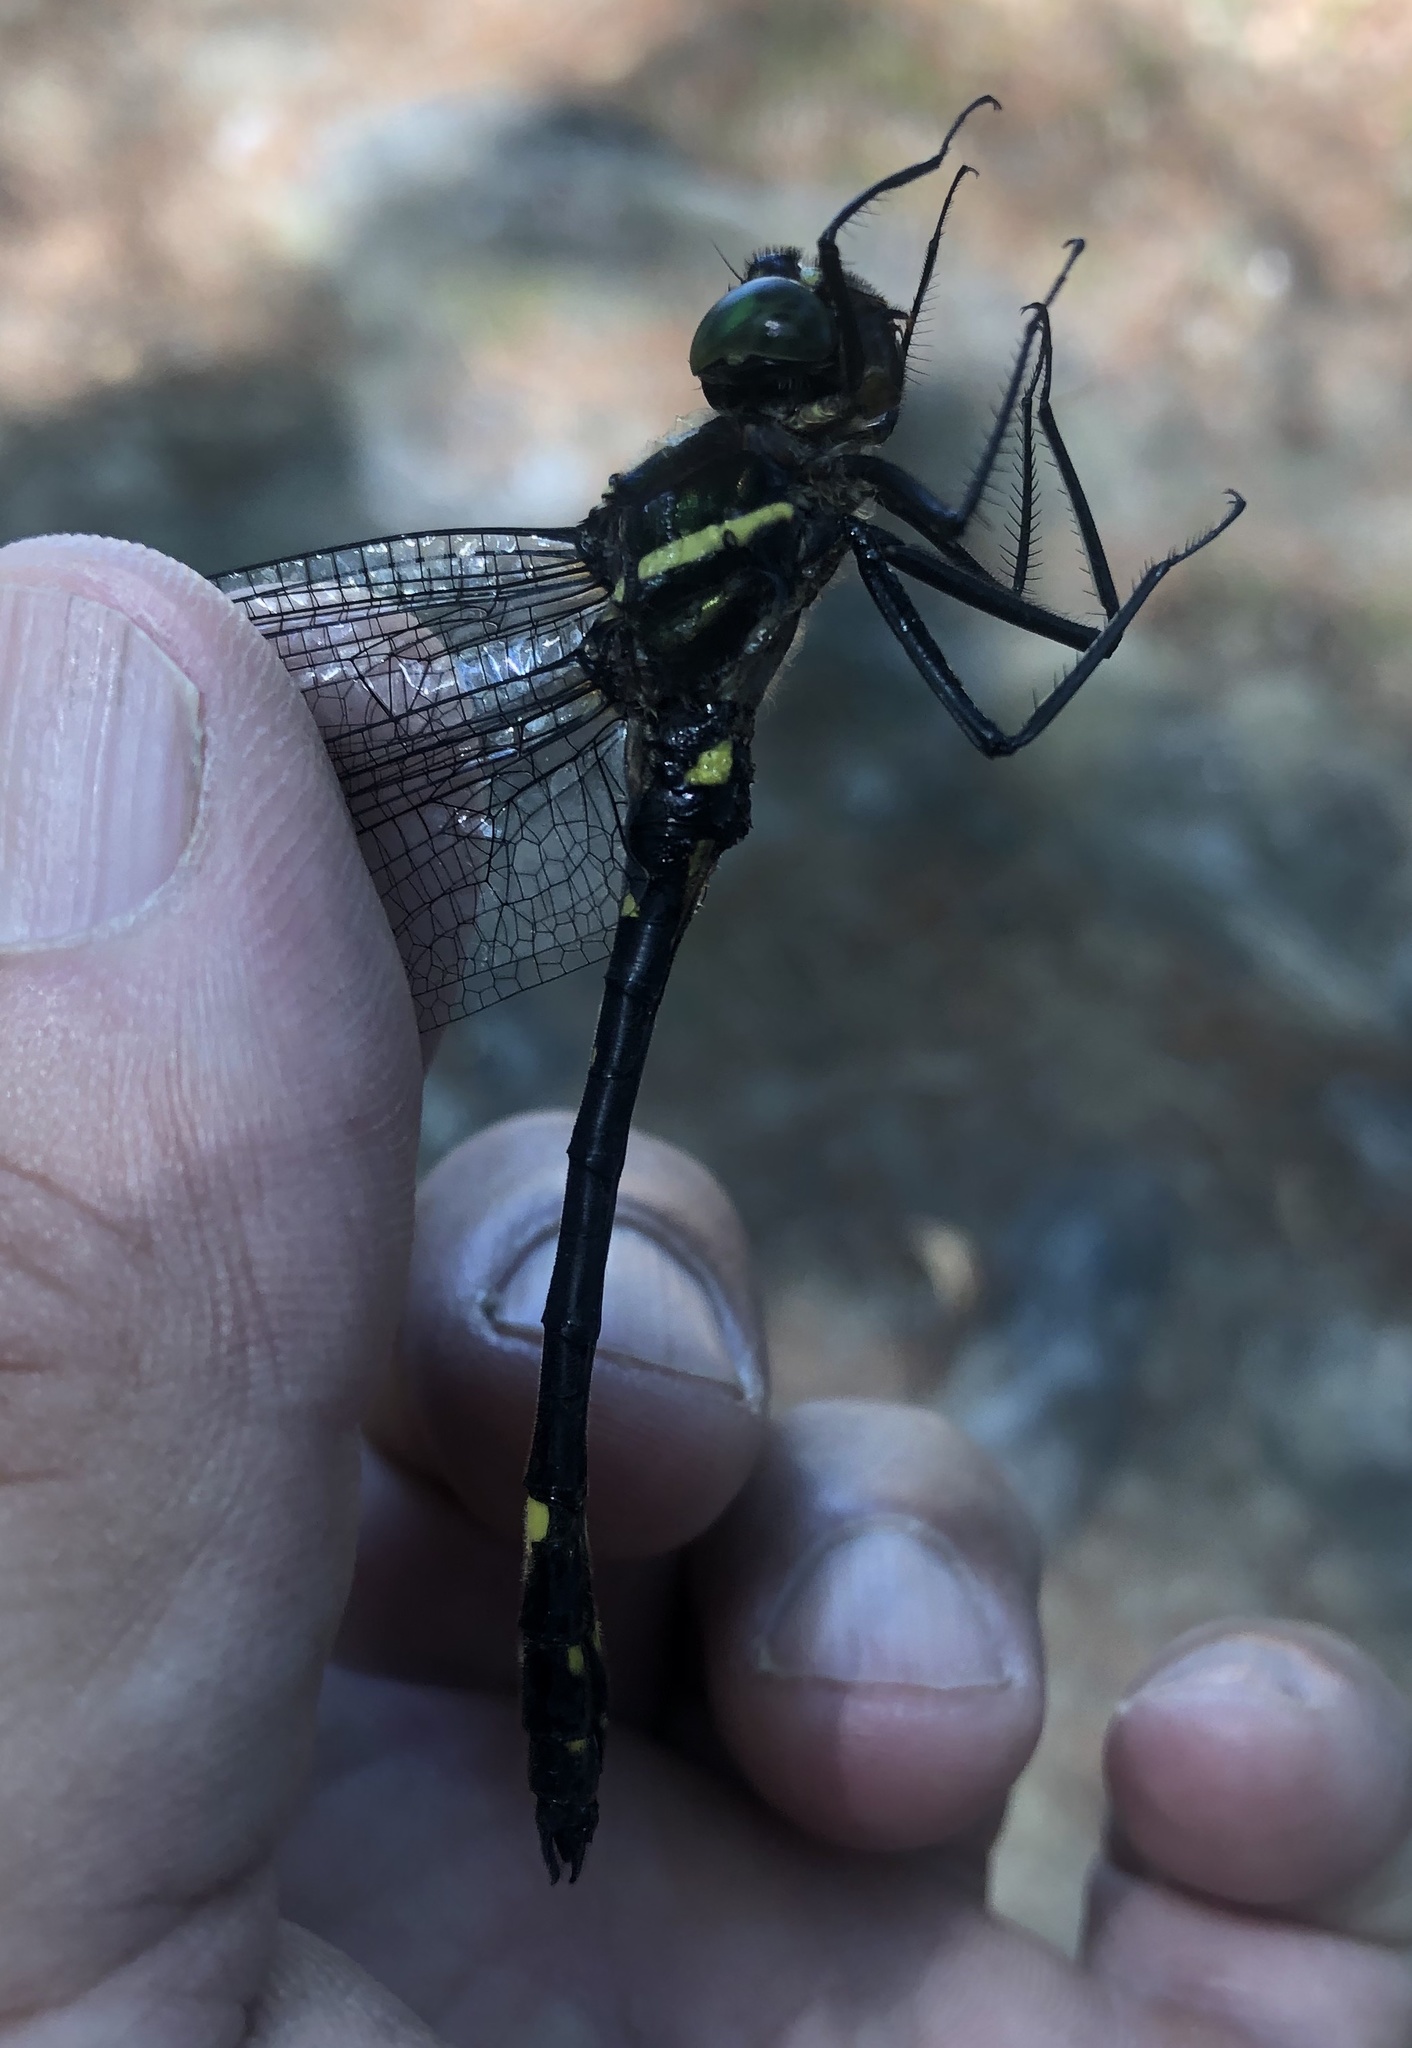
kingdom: Animalia
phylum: Arthropoda
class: Insecta
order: Odonata
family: Macromiidae
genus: Macromia
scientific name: Macromia illinoiensis
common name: Swift river cruiser
